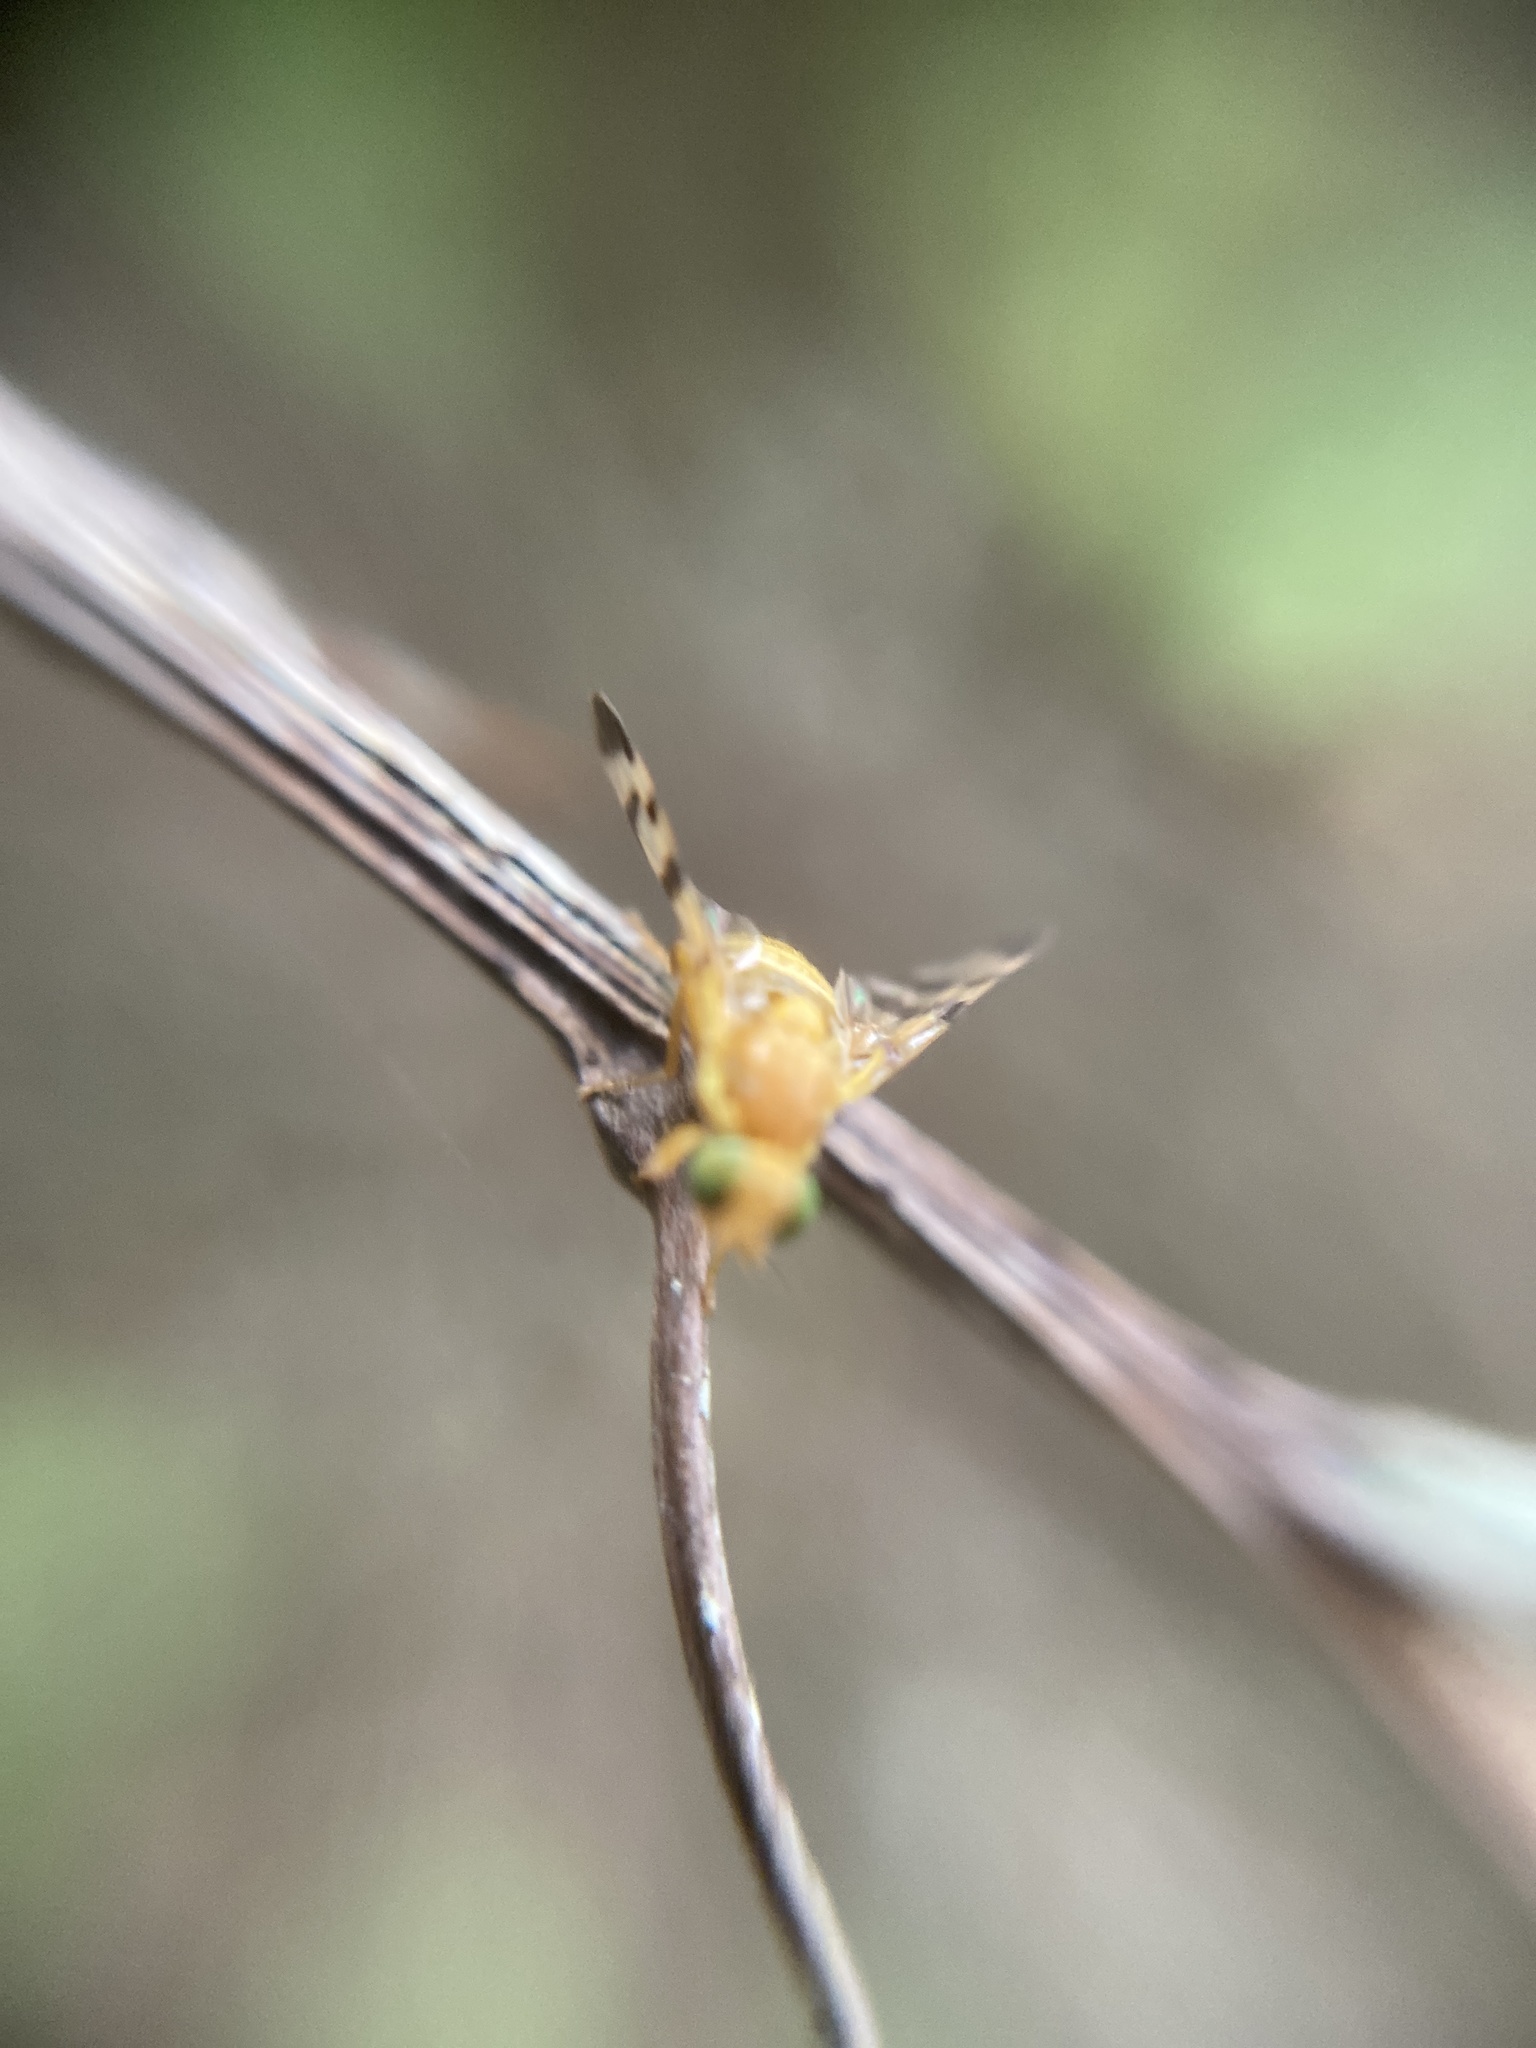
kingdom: Animalia
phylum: Arthropoda
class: Insecta
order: Diptera
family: Tephritidae
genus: Rhagoletis
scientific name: Rhagoletis meigenii
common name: Fruit fly
